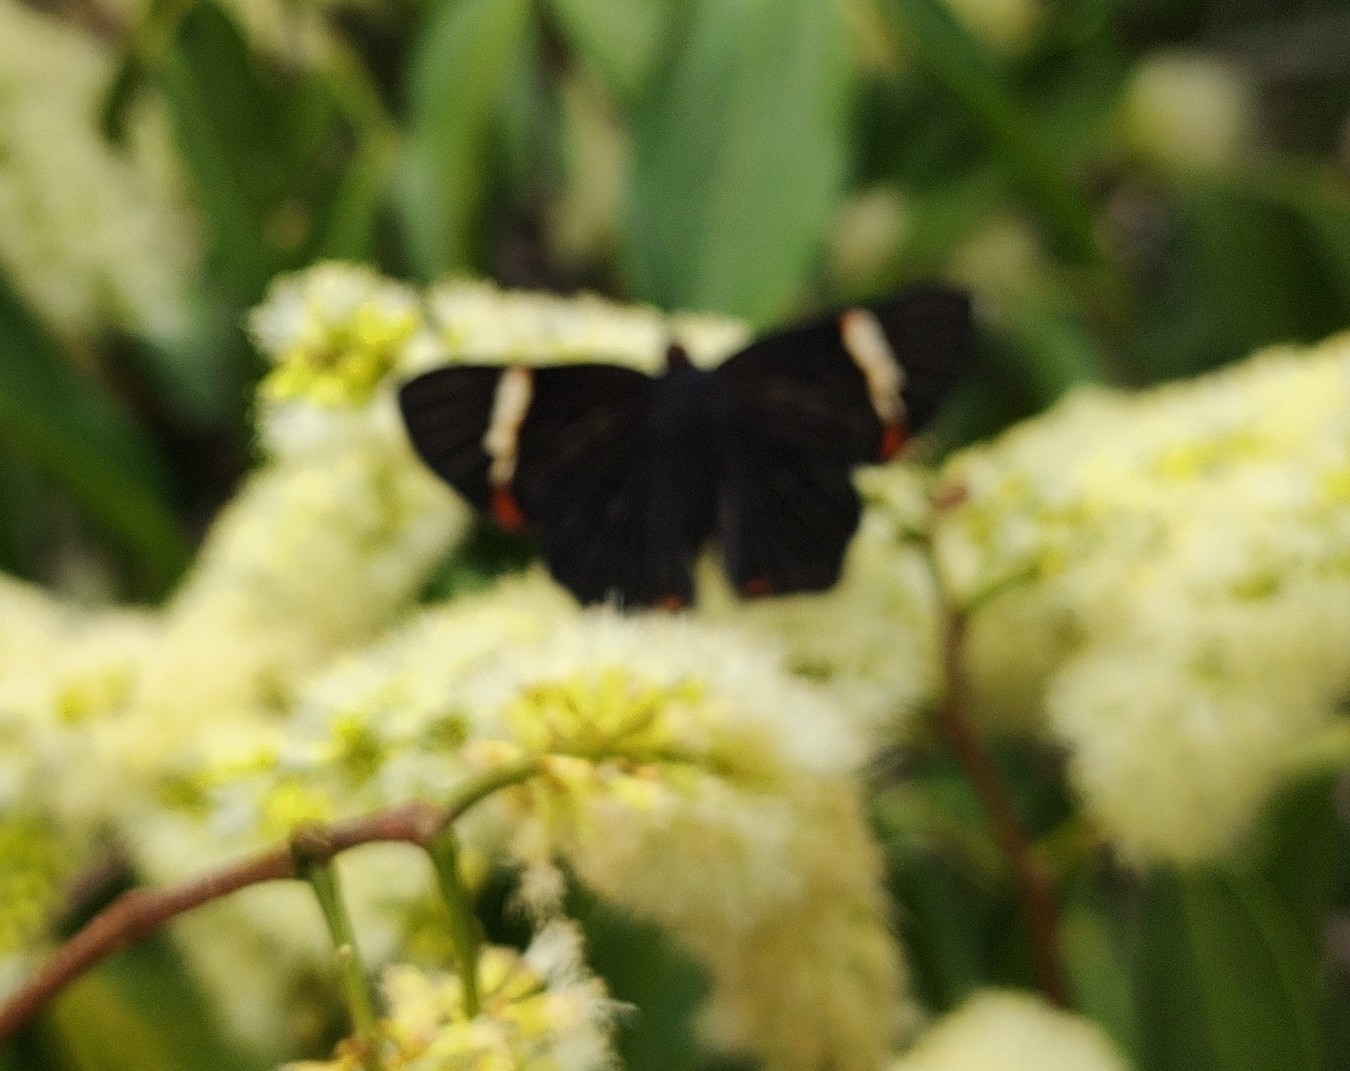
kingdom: Animalia
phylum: Arthropoda
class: Insecta
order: Lepidoptera
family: Riodinidae
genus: Riodina
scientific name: Riodina lycisca
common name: Lycisca metalmark
